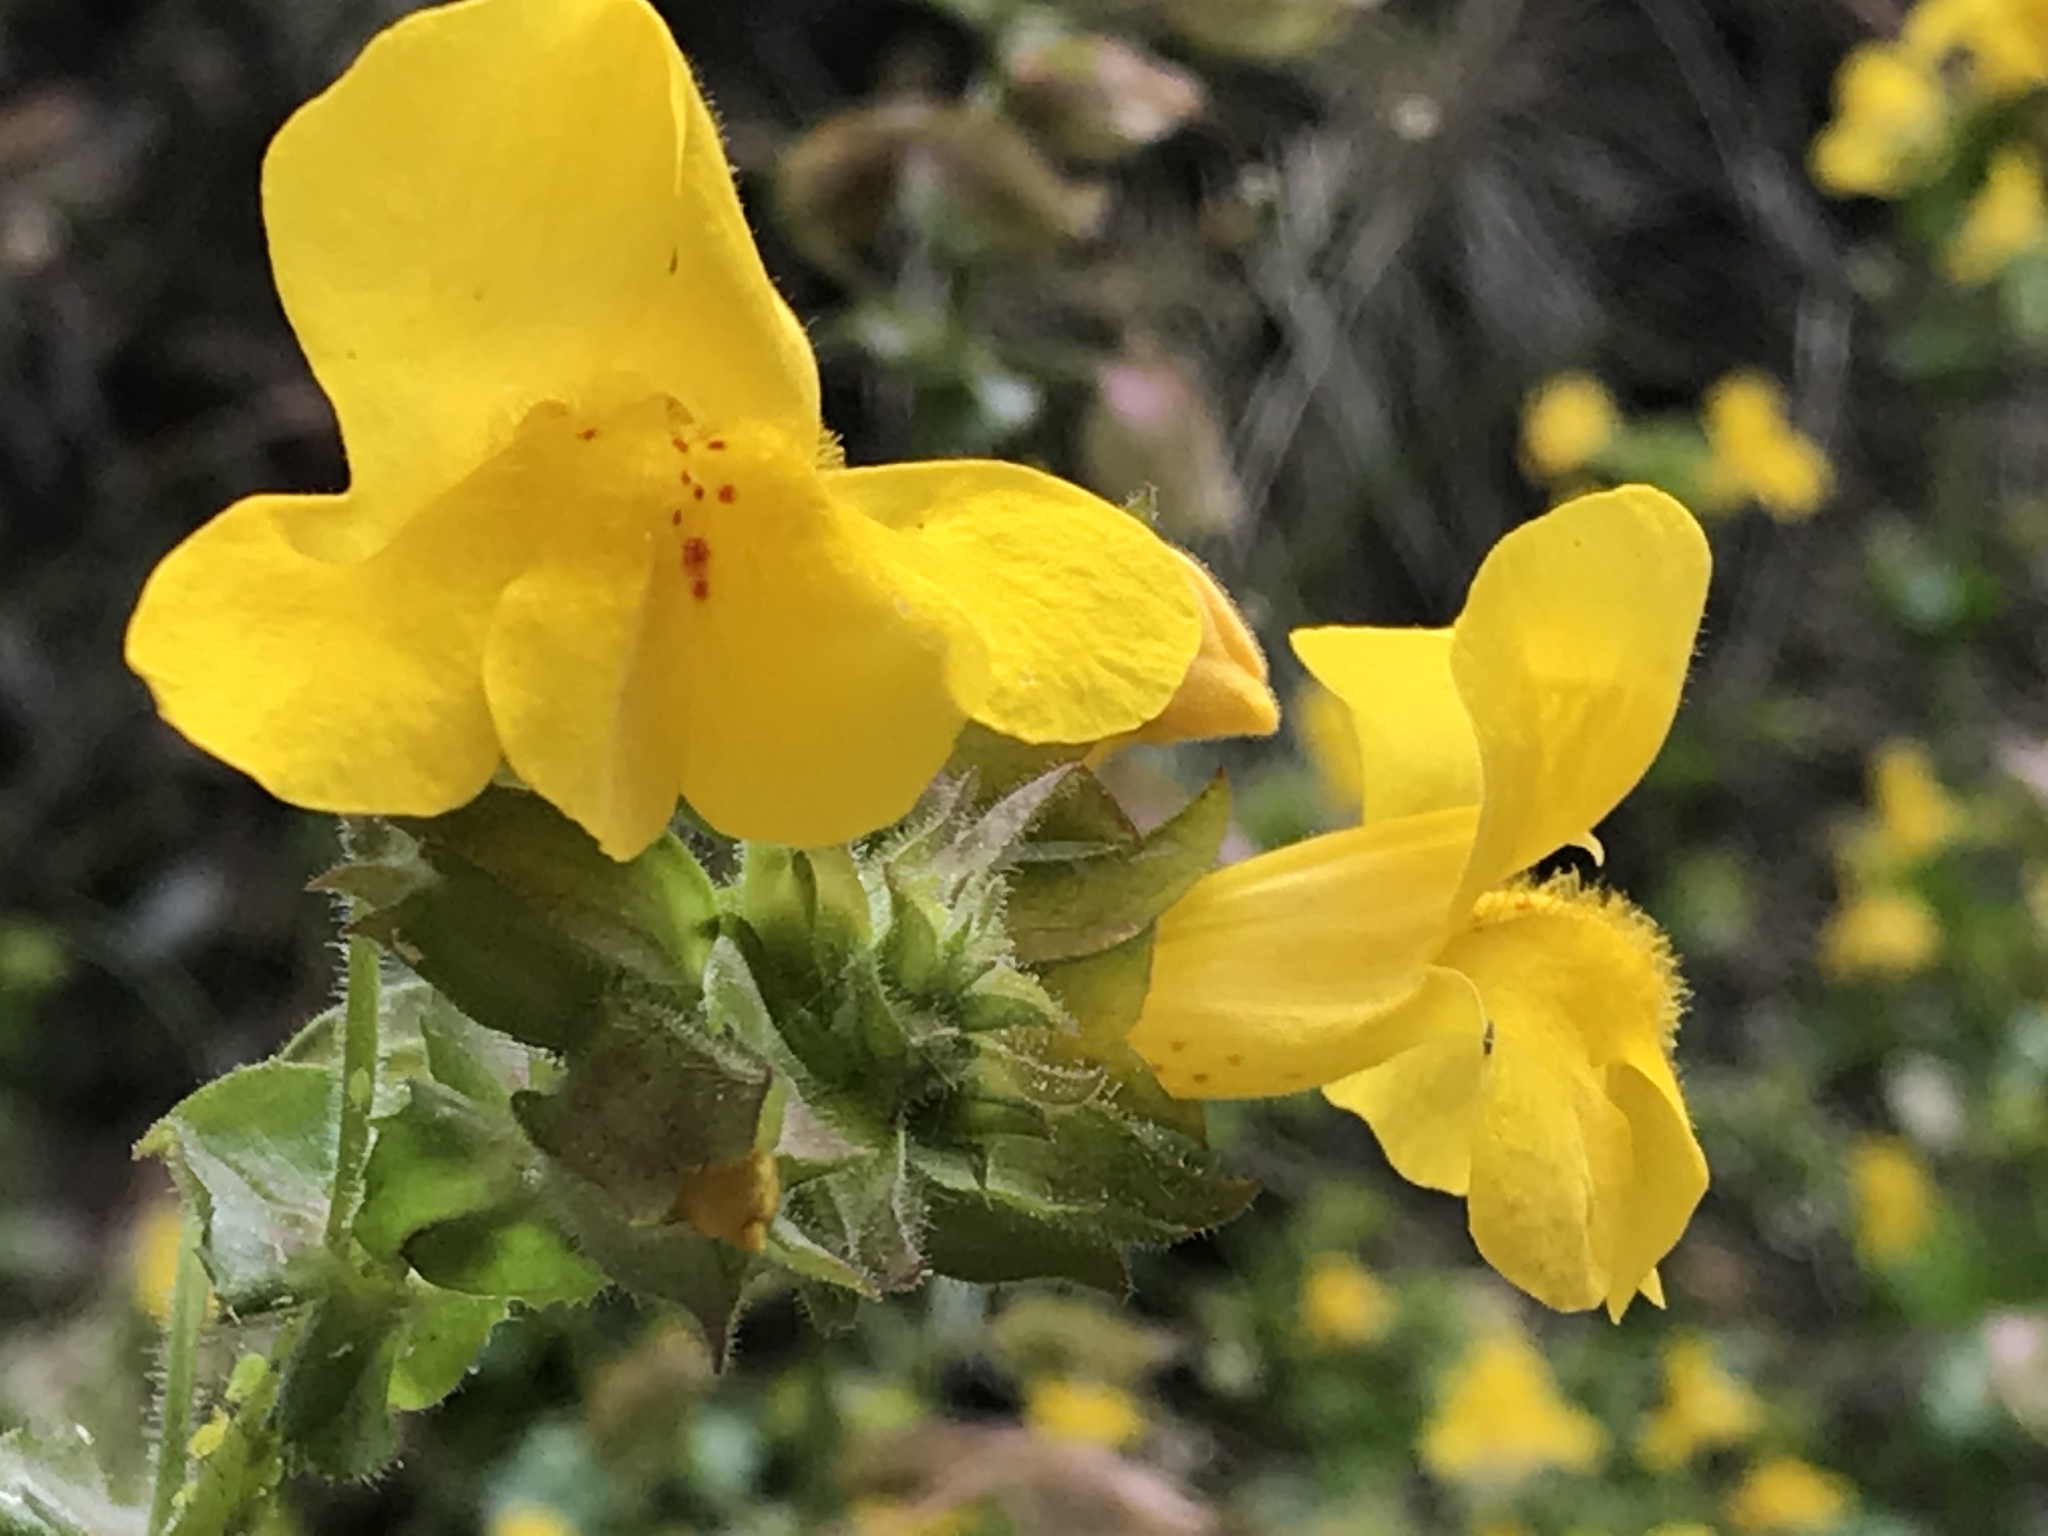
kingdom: Plantae
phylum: Tracheophyta
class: Magnoliopsida
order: Lamiales
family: Phrymaceae
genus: Erythranthe
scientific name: Erythranthe guttata
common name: Monkeyflower
